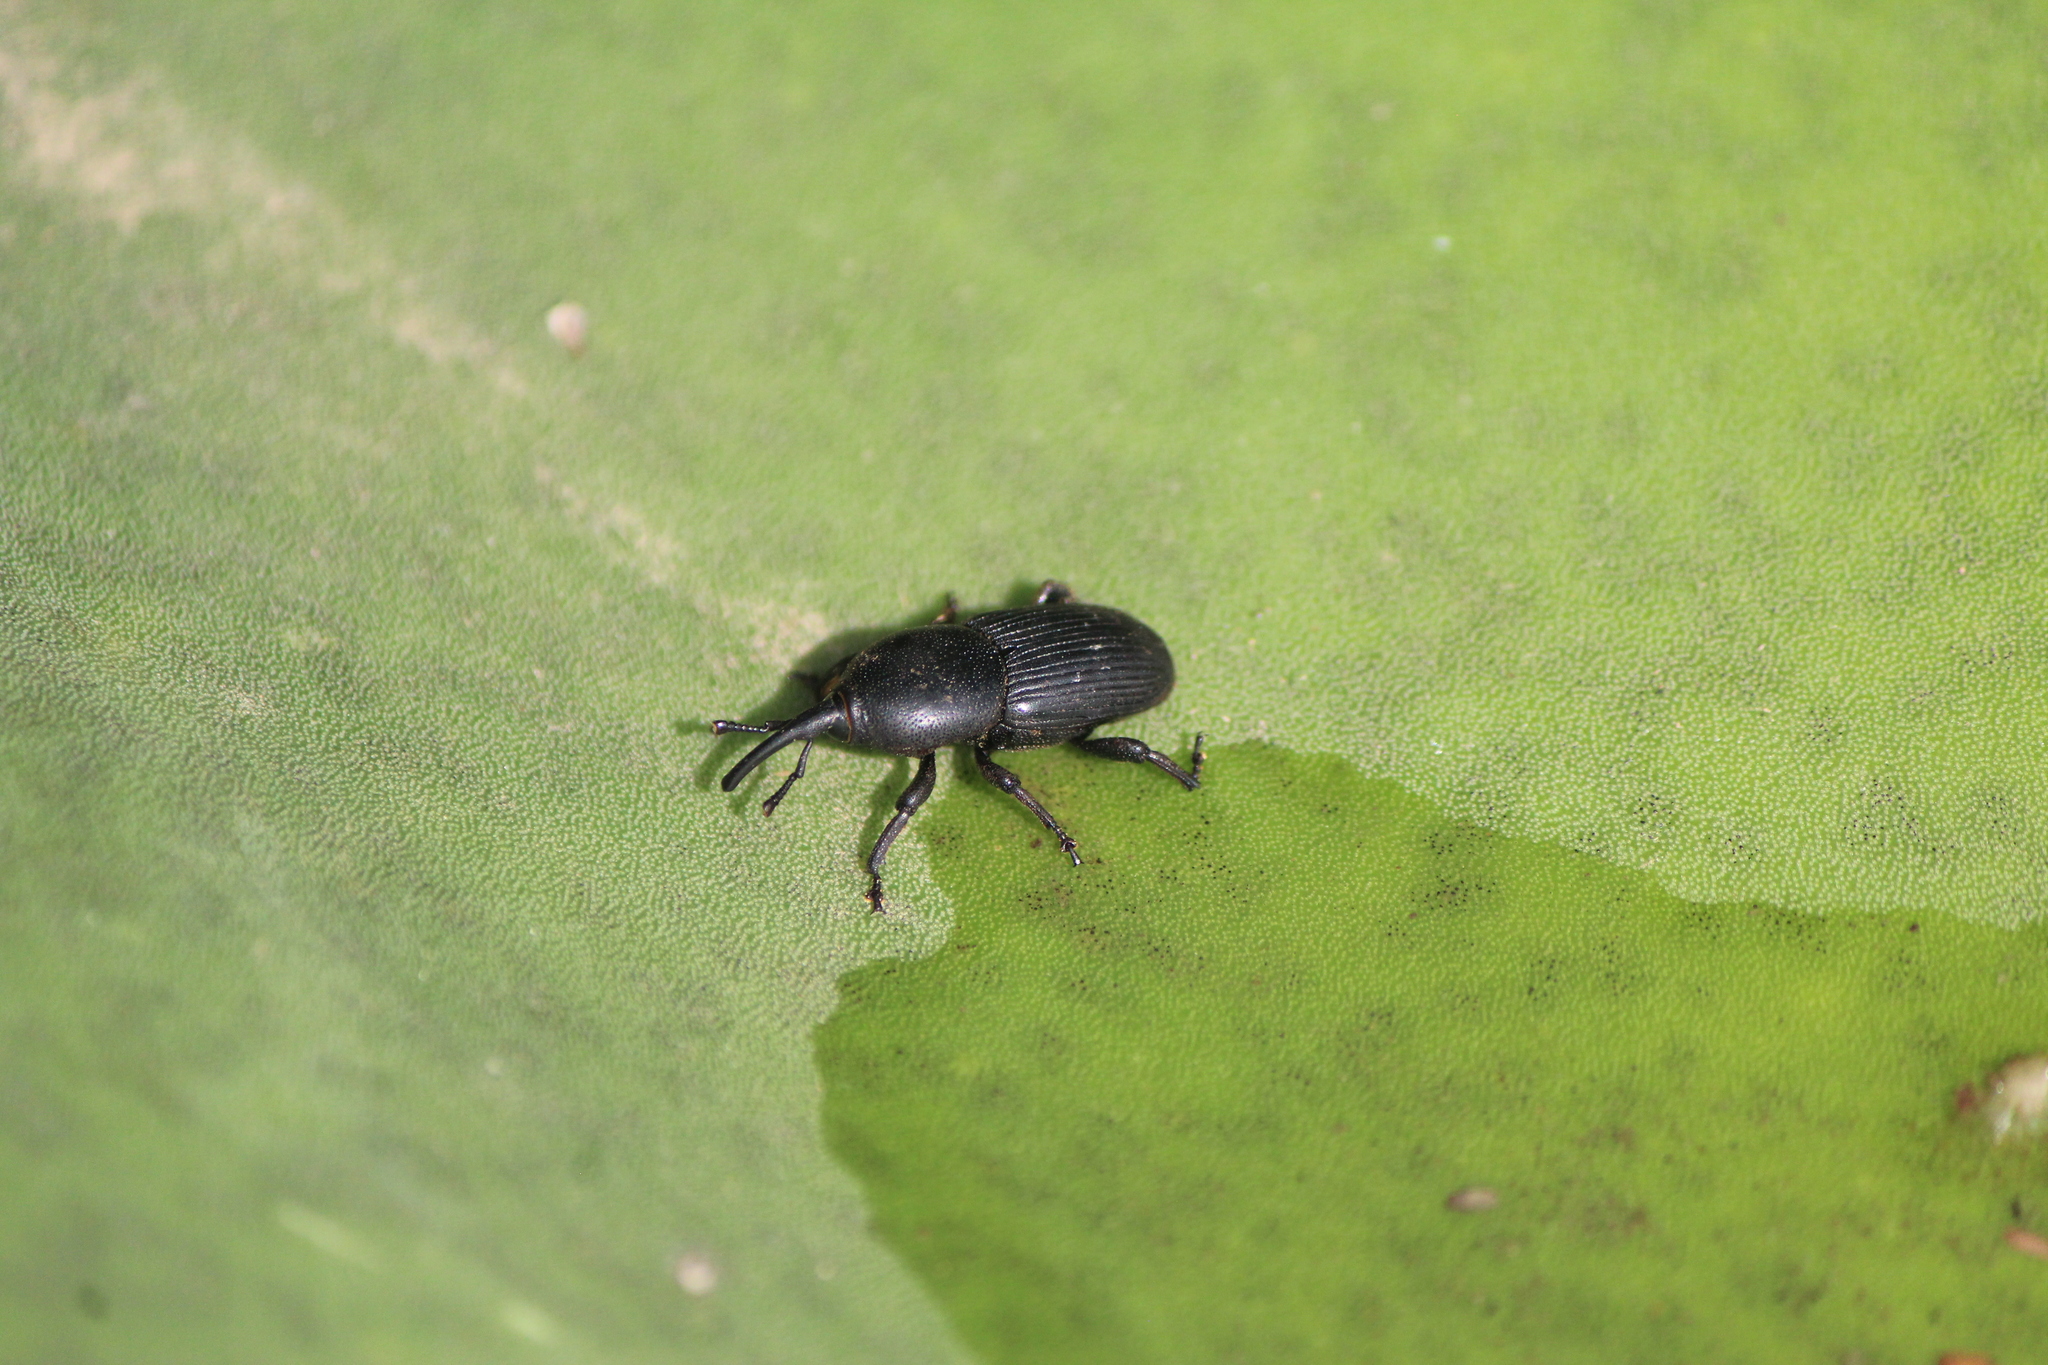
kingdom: Animalia
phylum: Arthropoda
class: Insecta
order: Coleoptera
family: Dryophthoridae
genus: Scyphophorus
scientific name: Scyphophorus acupunctatus
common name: Weevil
